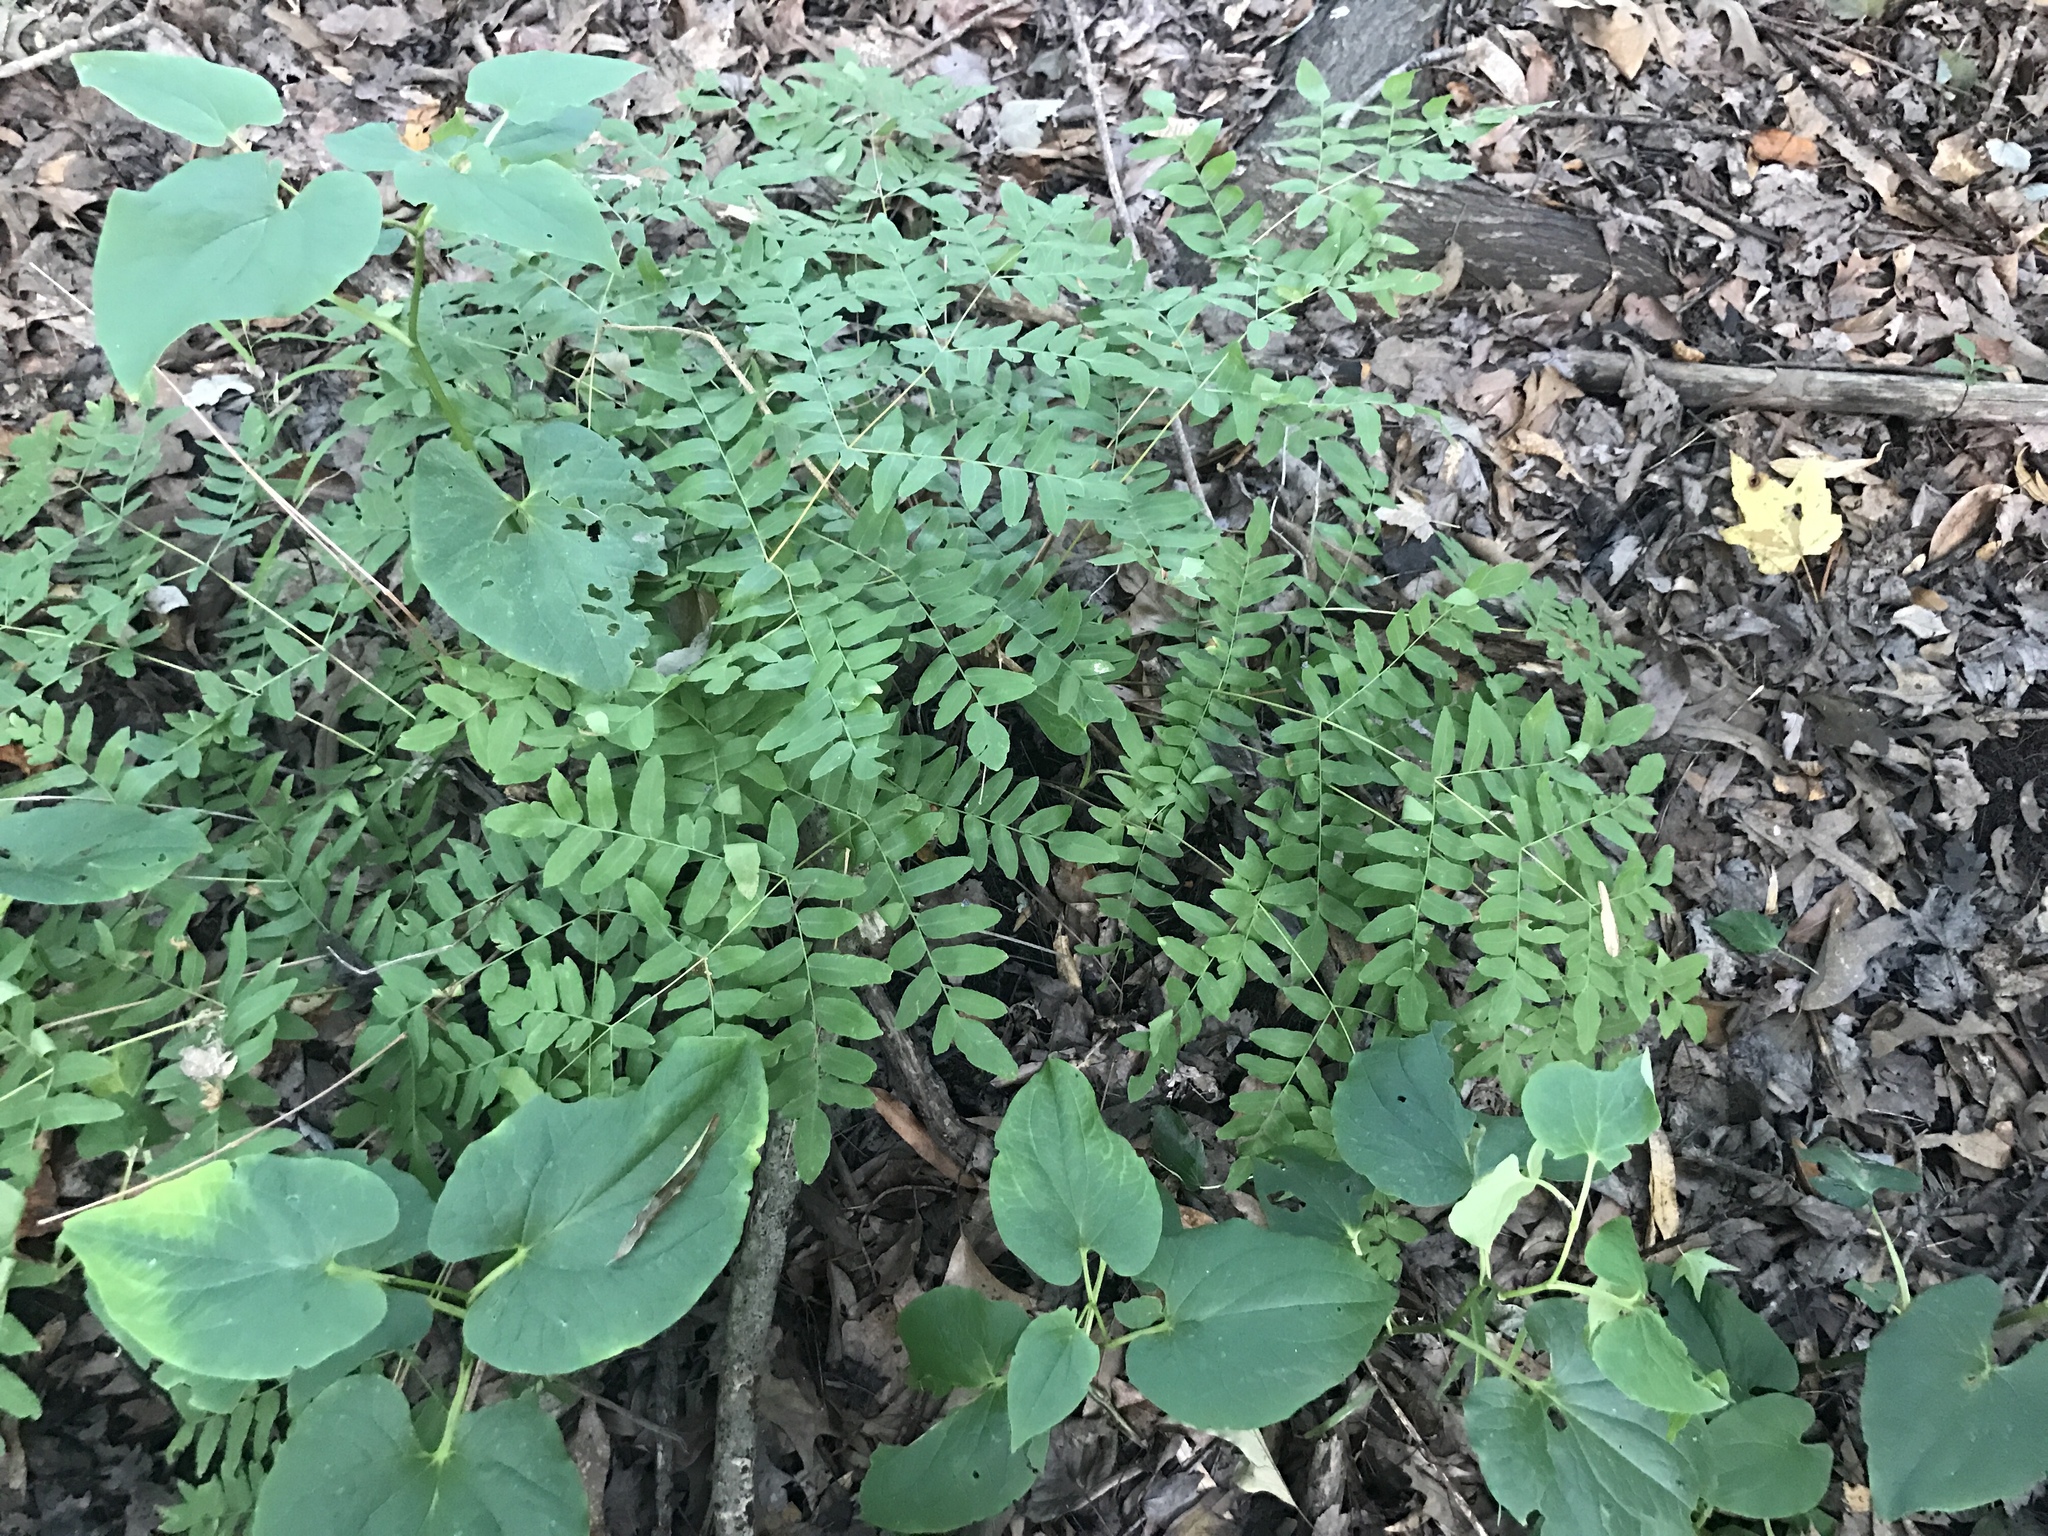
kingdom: Plantae
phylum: Tracheophyta
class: Polypodiopsida
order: Osmundales
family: Osmundaceae
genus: Osmunda
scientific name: Osmunda spectabilis
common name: American royal fern
